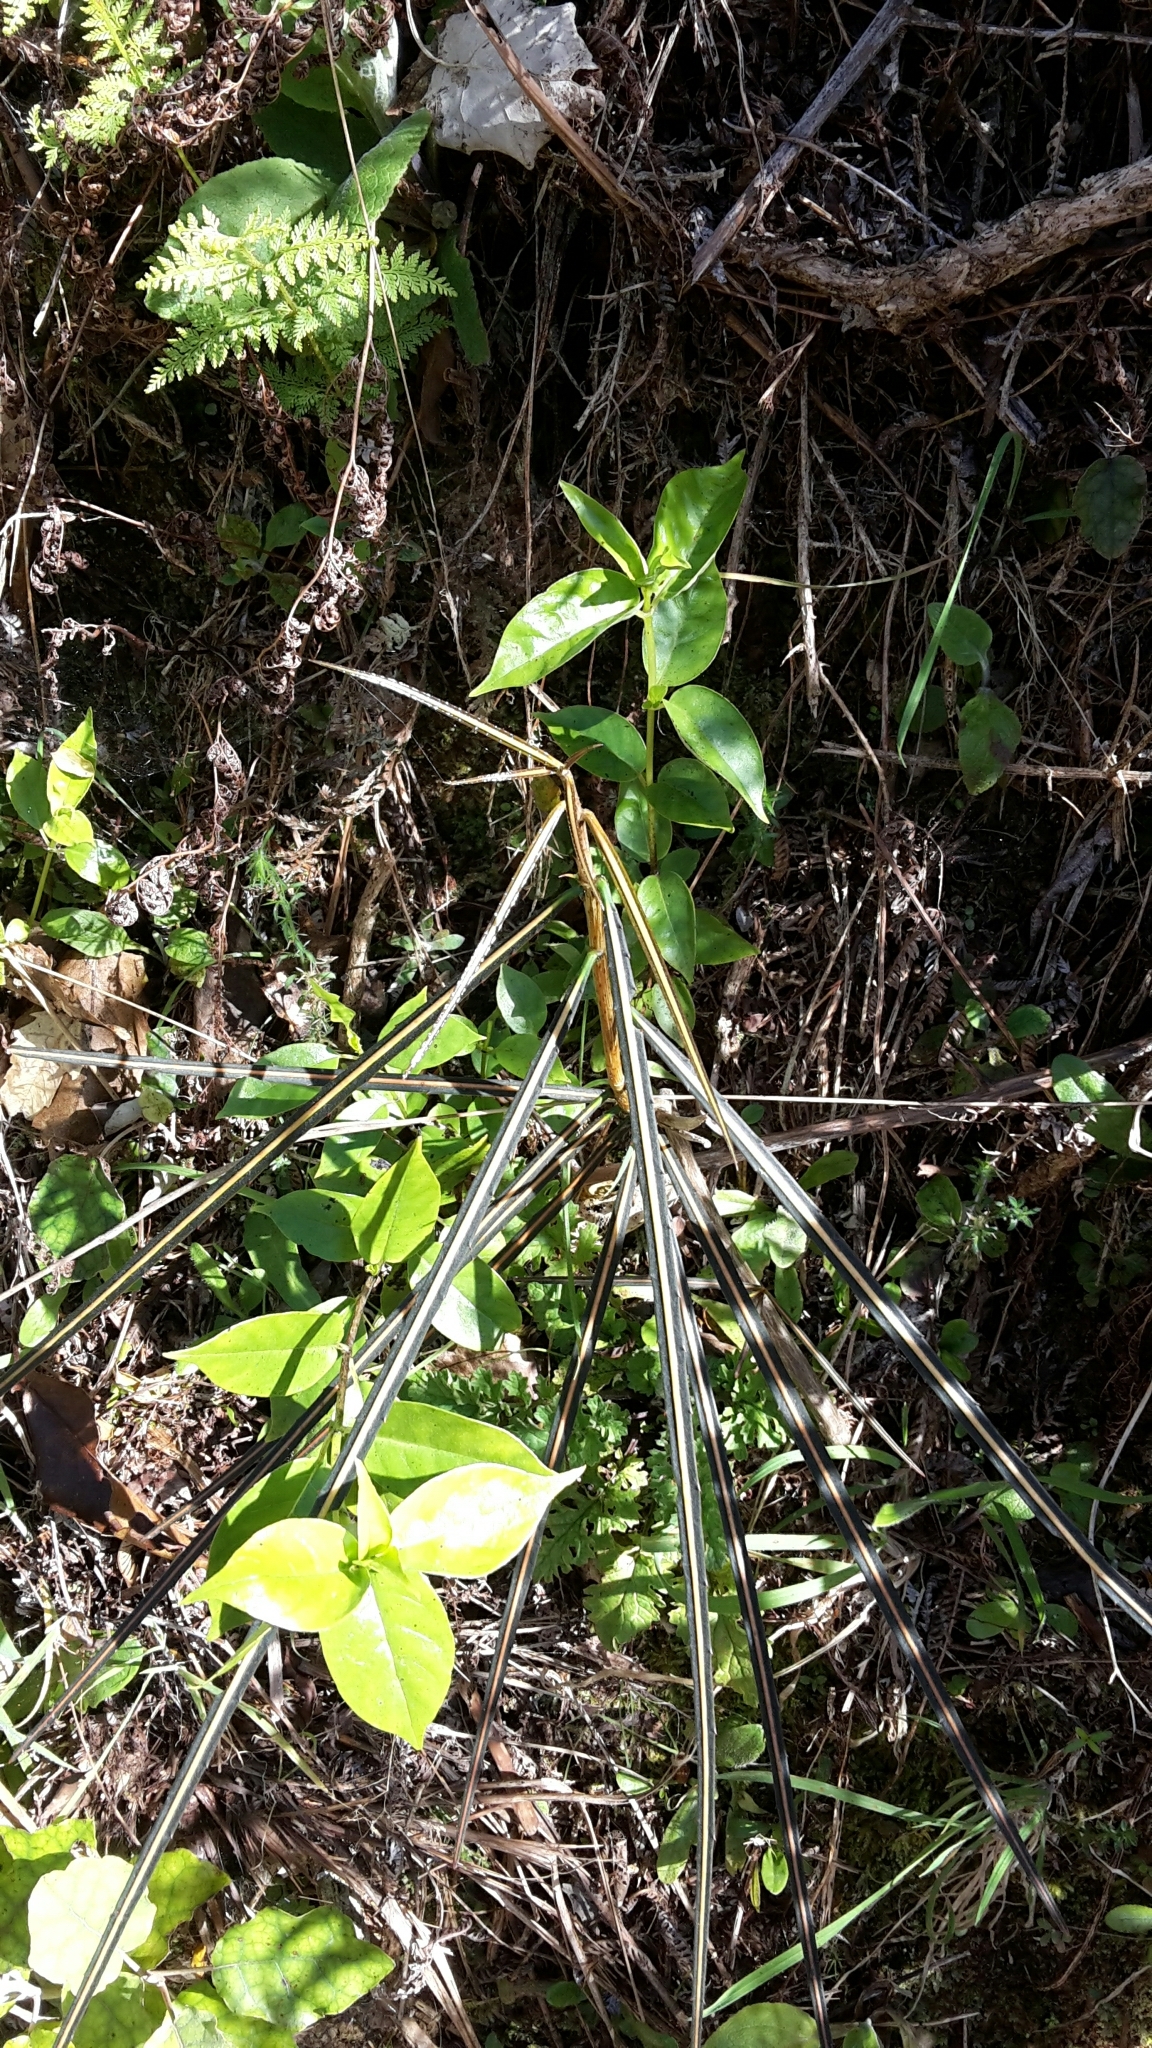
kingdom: Plantae
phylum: Tracheophyta
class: Magnoliopsida
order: Apiales
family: Araliaceae
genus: Pseudopanax
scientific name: Pseudopanax crassifolius
